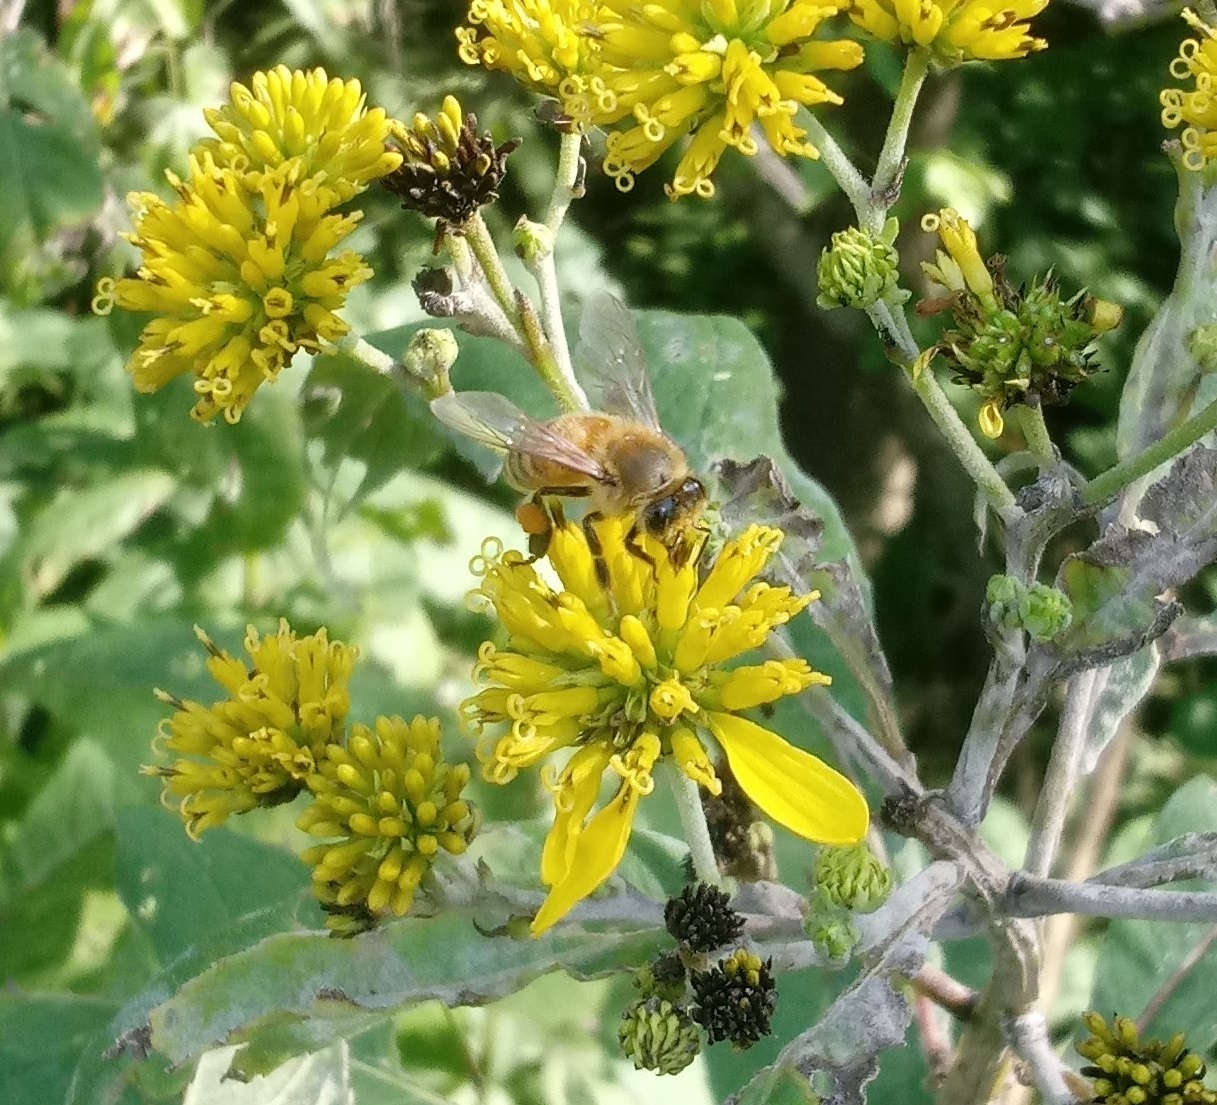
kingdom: Animalia
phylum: Arthropoda
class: Insecta
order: Hymenoptera
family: Apidae
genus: Apis
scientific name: Apis mellifera
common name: Honey bee
